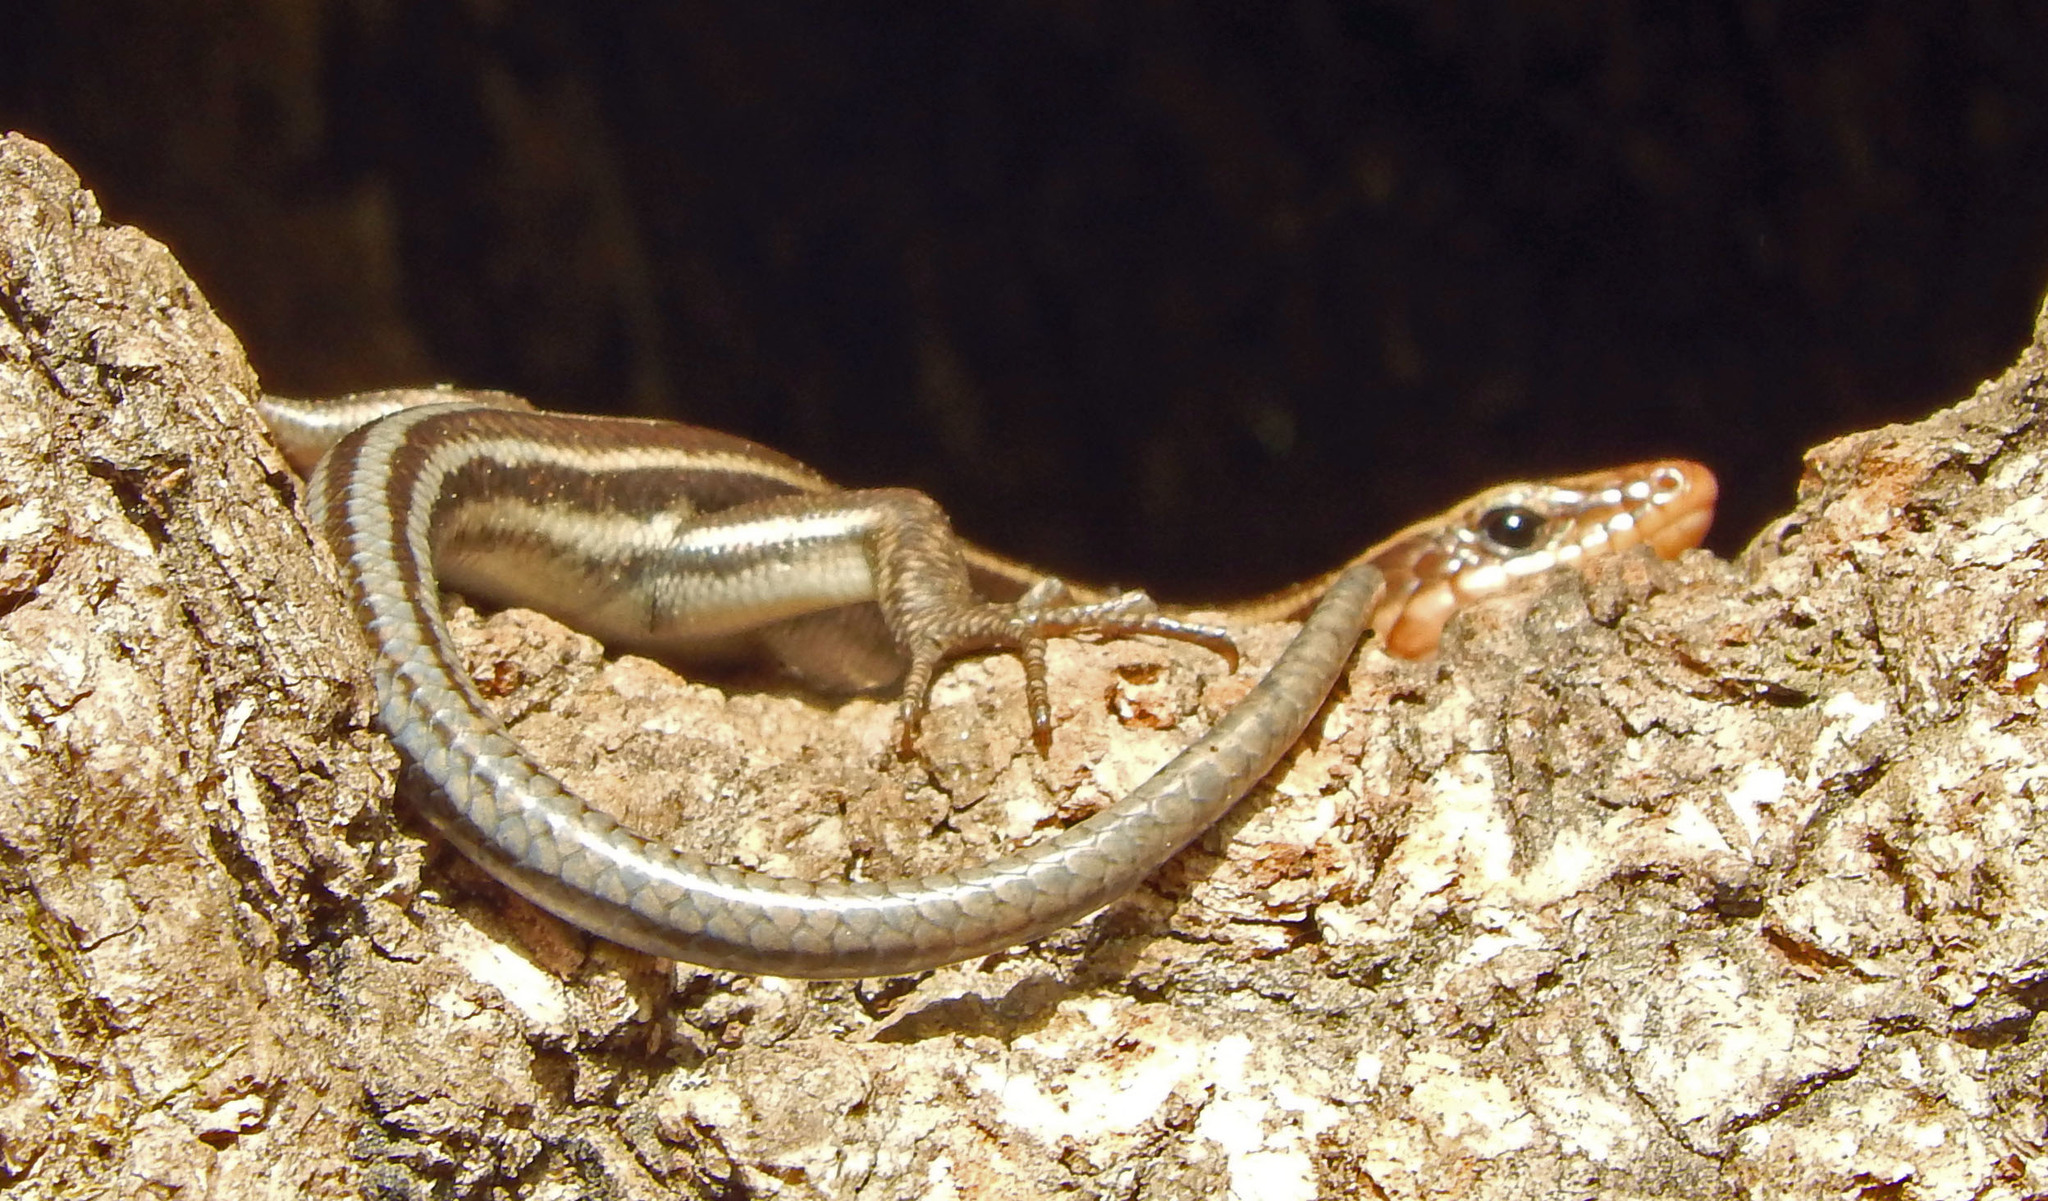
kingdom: Animalia
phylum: Chordata
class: Squamata
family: Scincidae
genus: Plestiodon
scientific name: Plestiodon fasciatus
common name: Five-lined skink
